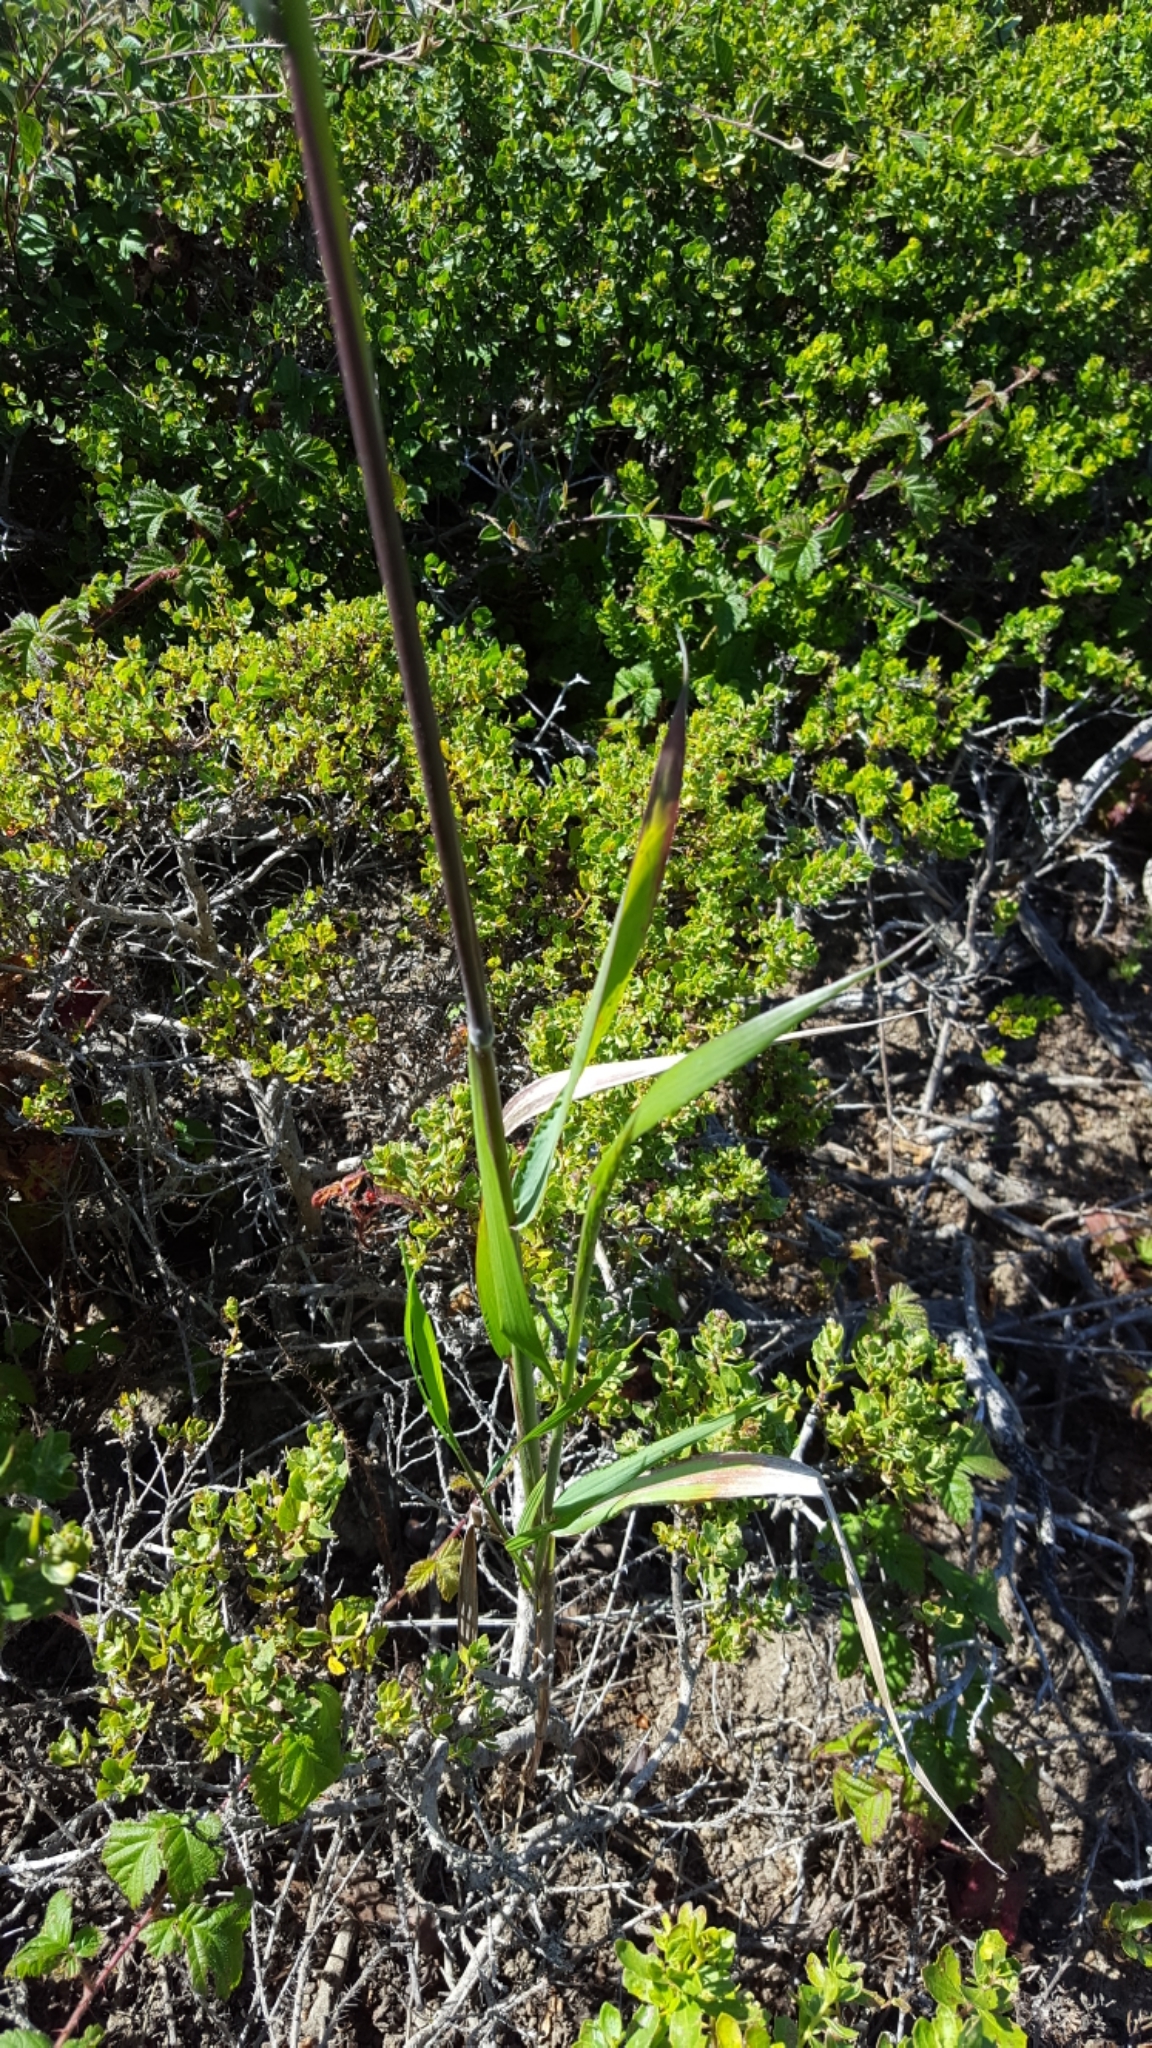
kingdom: Plantae
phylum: Tracheophyta
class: Liliopsida
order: Poales
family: Poaceae
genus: Elymus
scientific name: Elymus glaucus
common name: Blue wild rye
